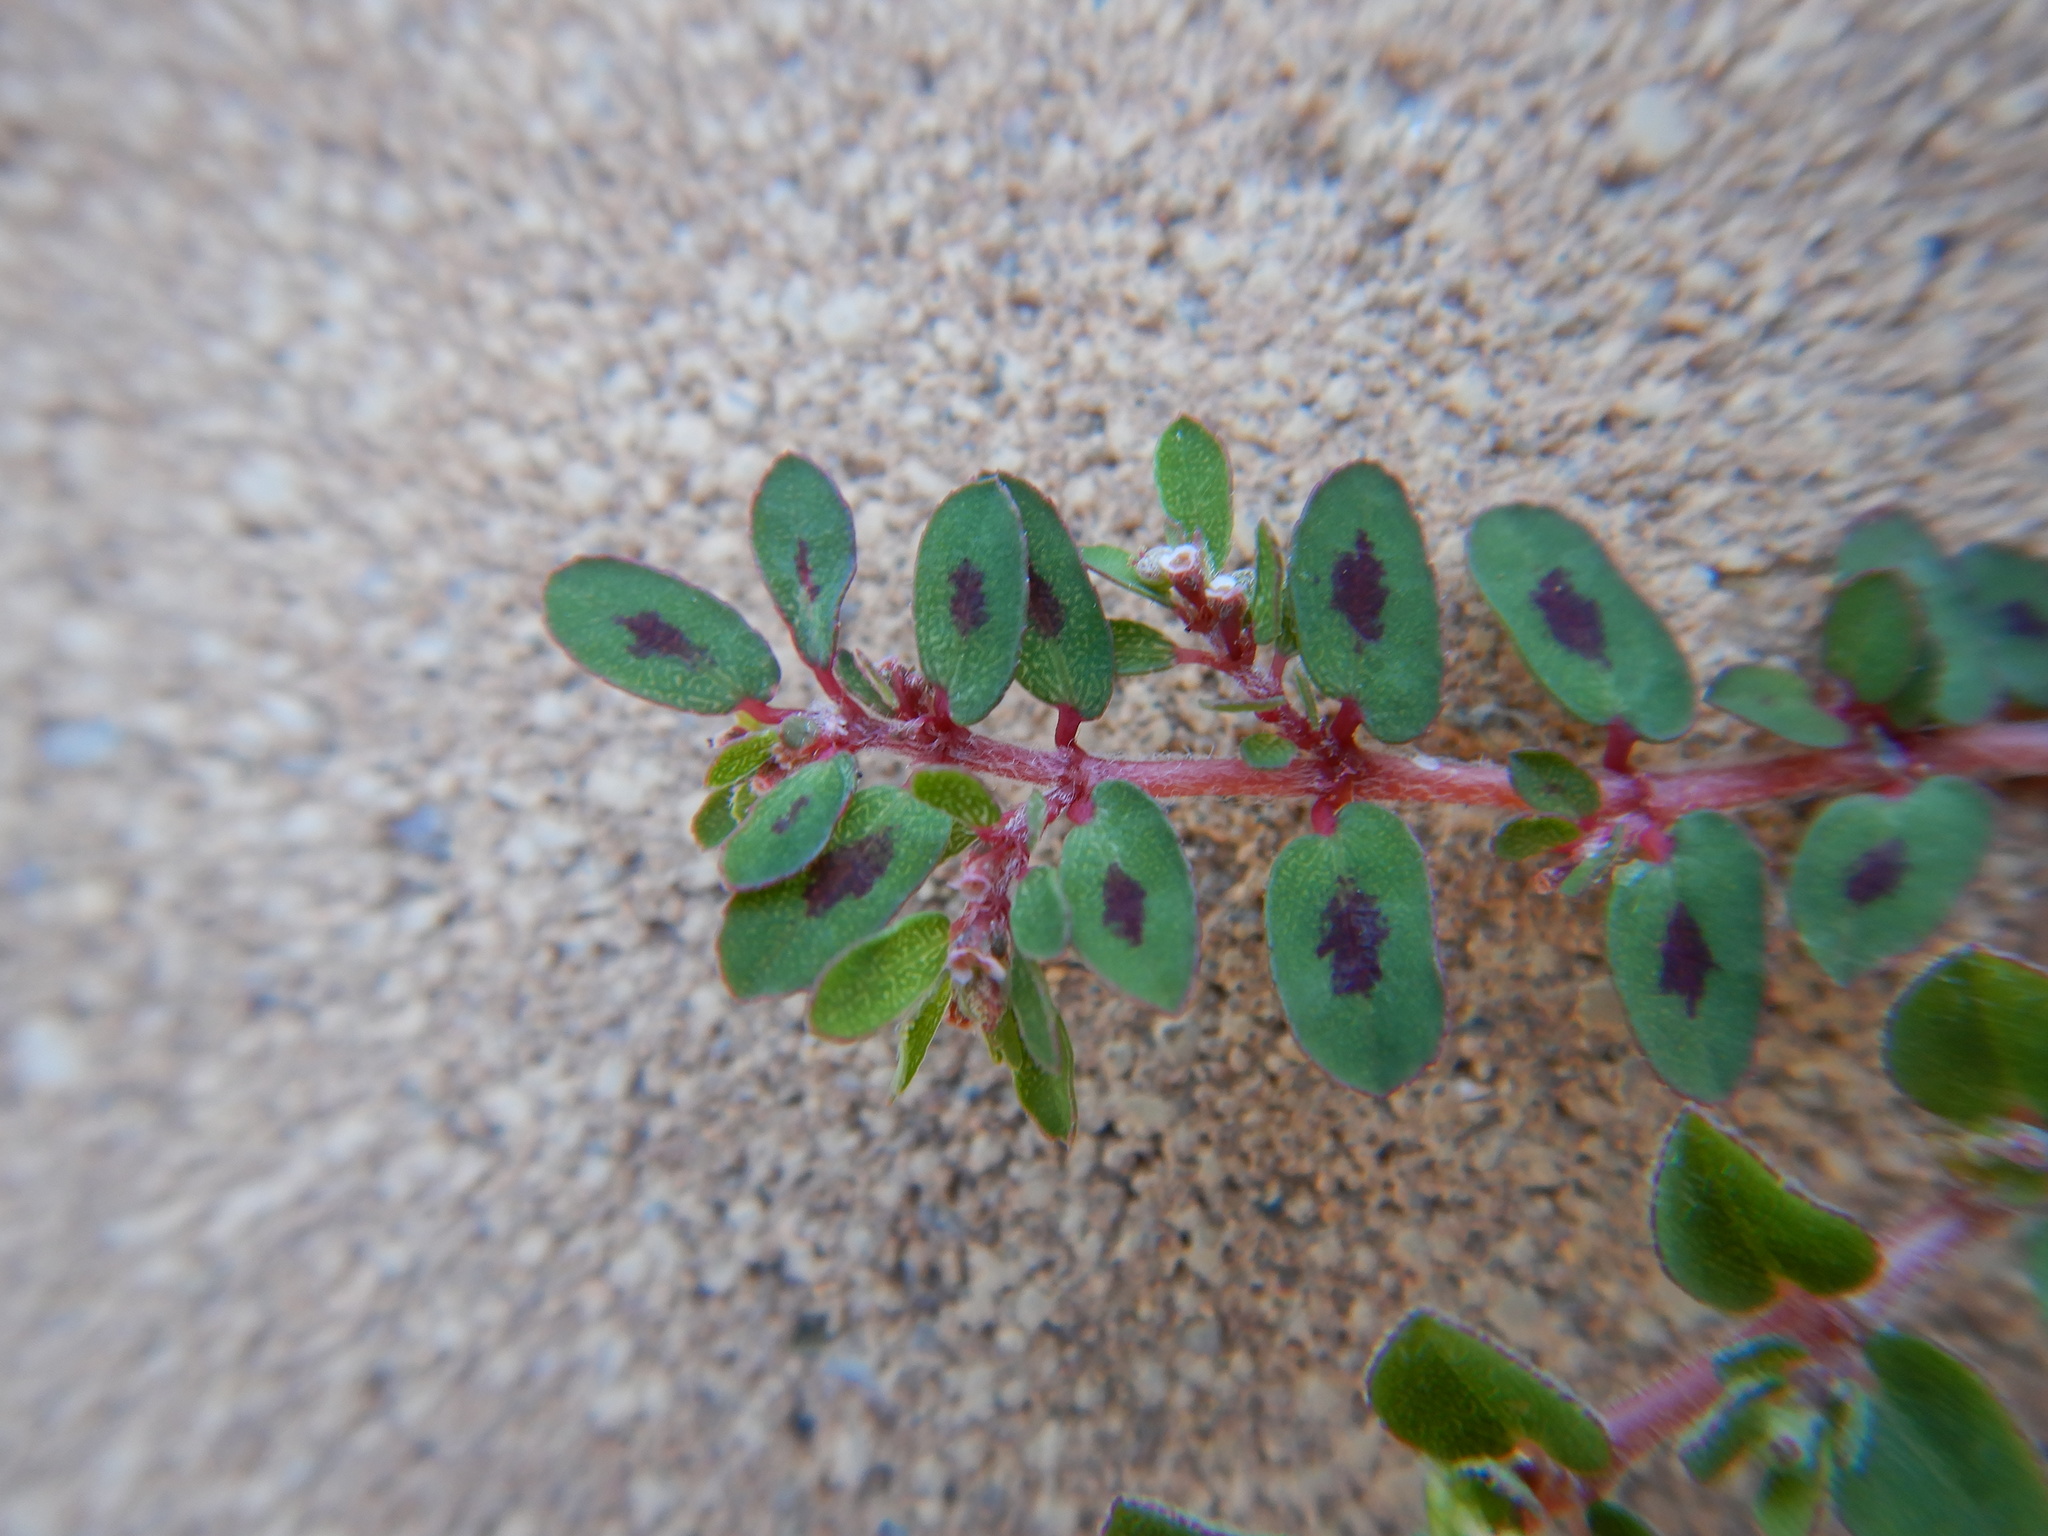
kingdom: Plantae
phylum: Tracheophyta
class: Magnoliopsida
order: Malpighiales
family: Euphorbiaceae
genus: Euphorbia
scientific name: Euphorbia maculata
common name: Spotted spurge
